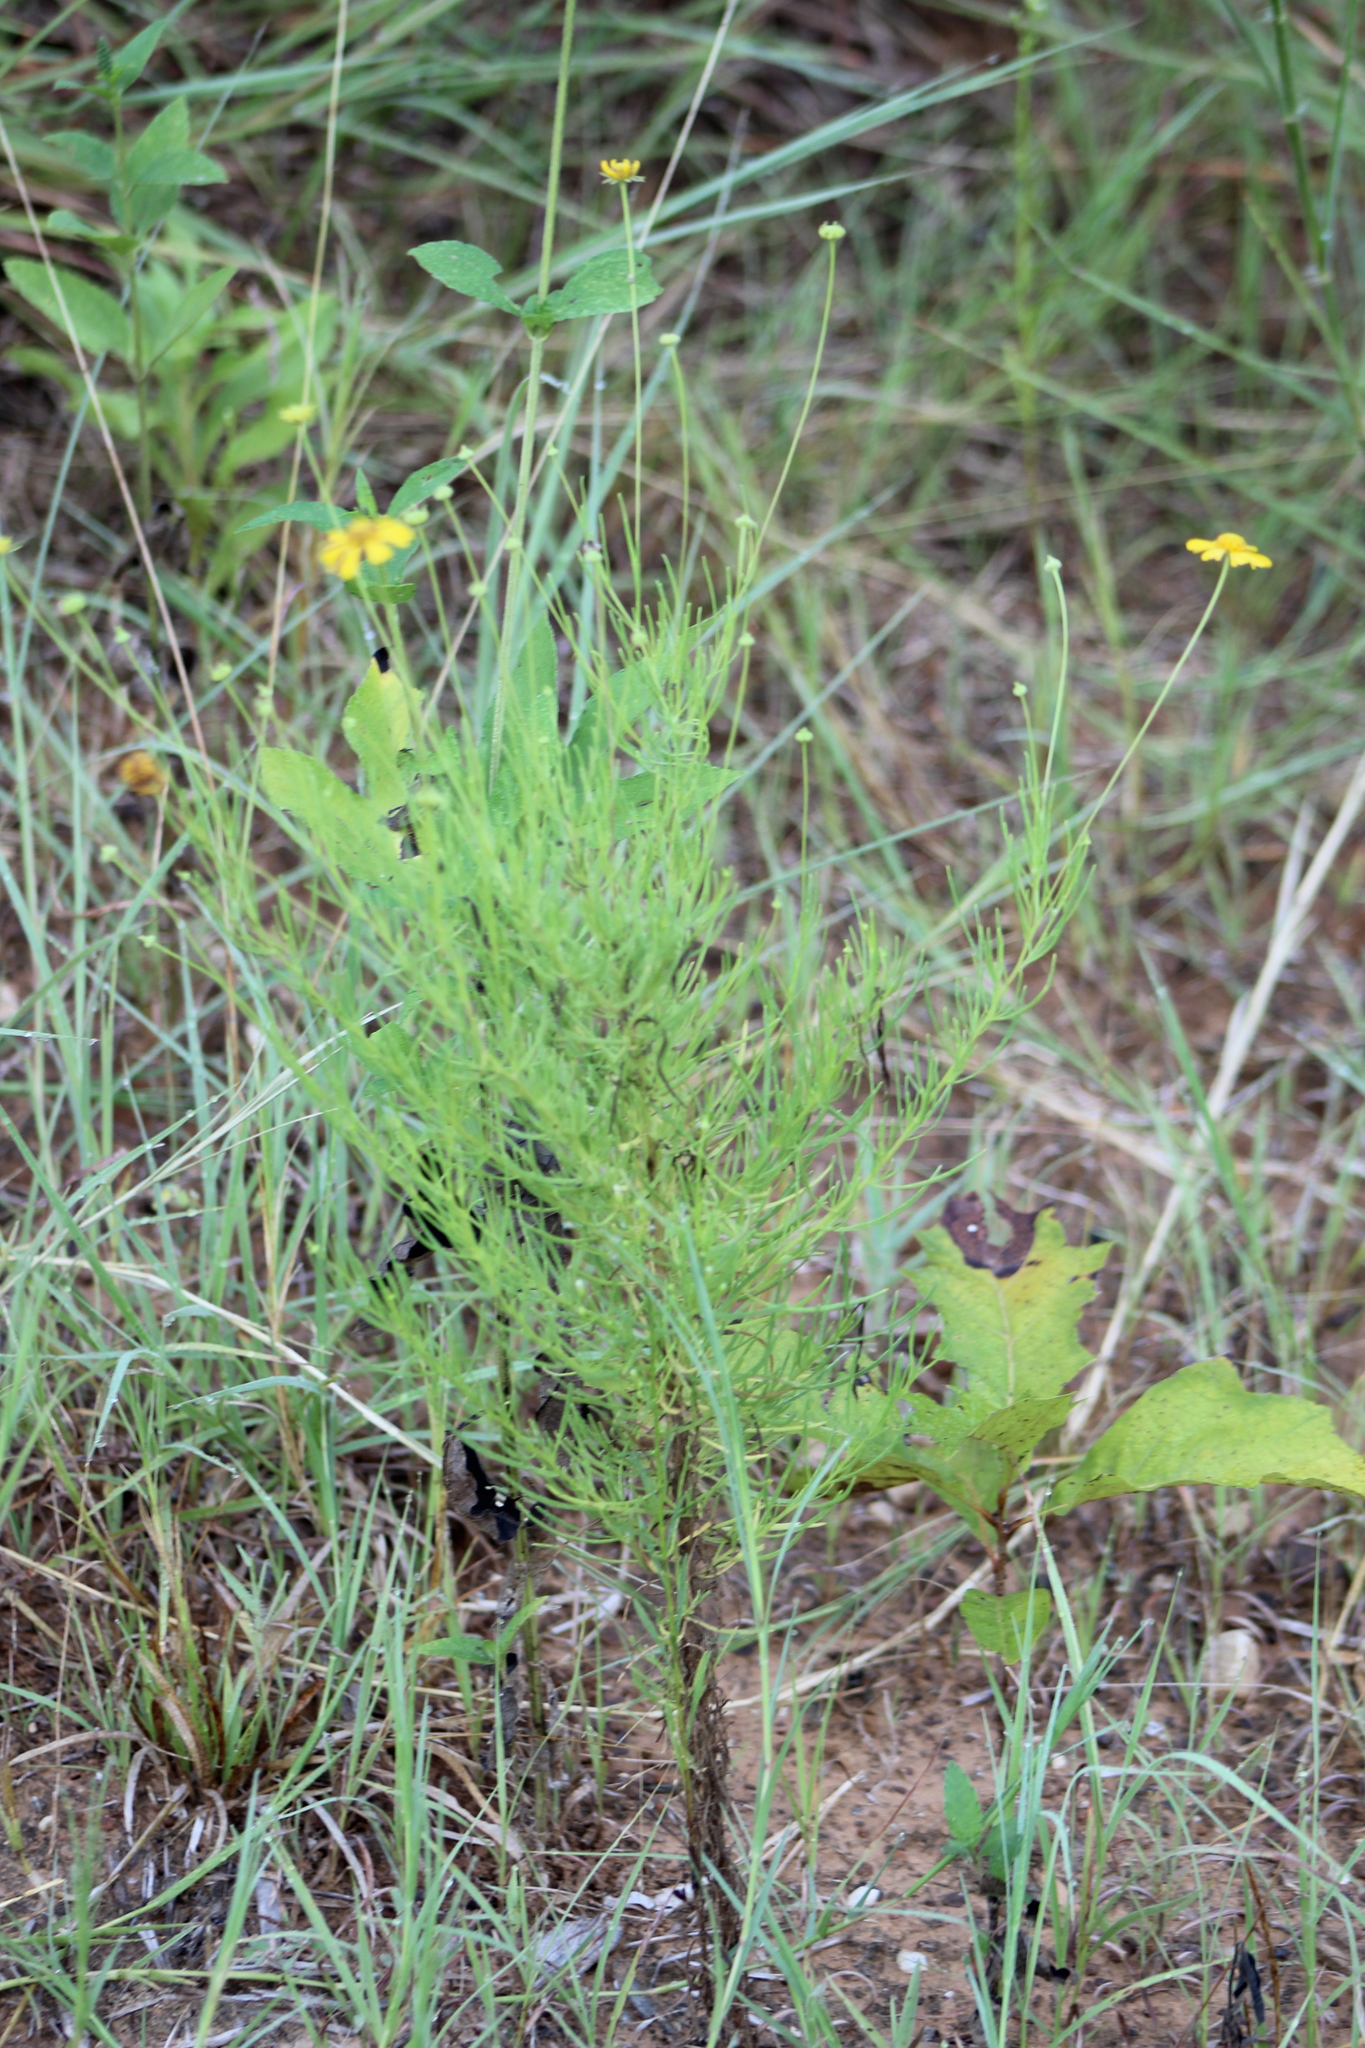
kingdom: Plantae
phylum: Tracheophyta
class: Magnoliopsida
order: Asterales
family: Asteraceae
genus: Helenium
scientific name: Helenium amarum
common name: Bitter sneezeweed
